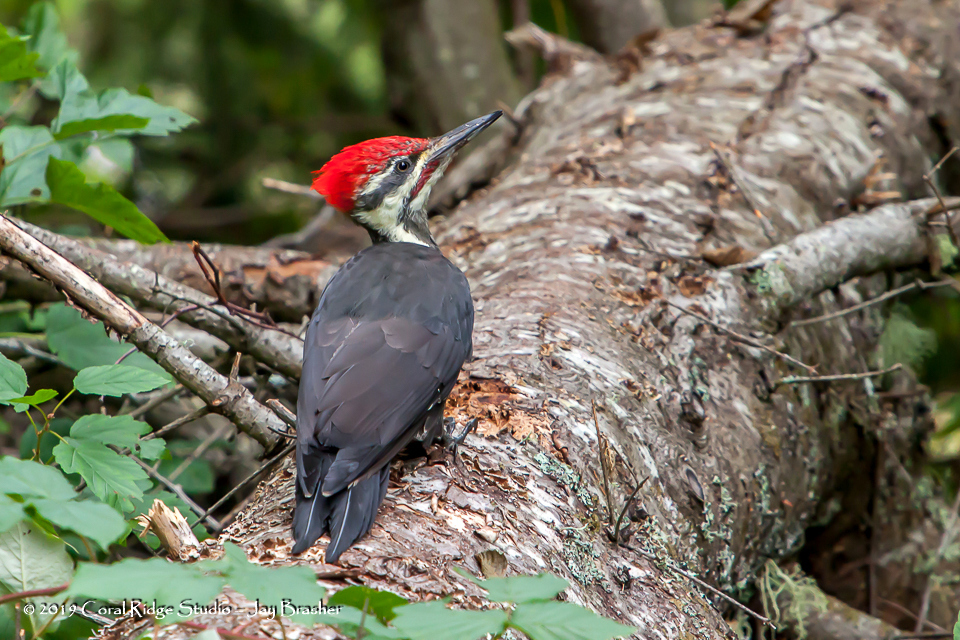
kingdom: Animalia
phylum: Chordata
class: Aves
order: Piciformes
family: Picidae
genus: Dryocopus
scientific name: Dryocopus pileatus
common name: Pileated woodpecker
